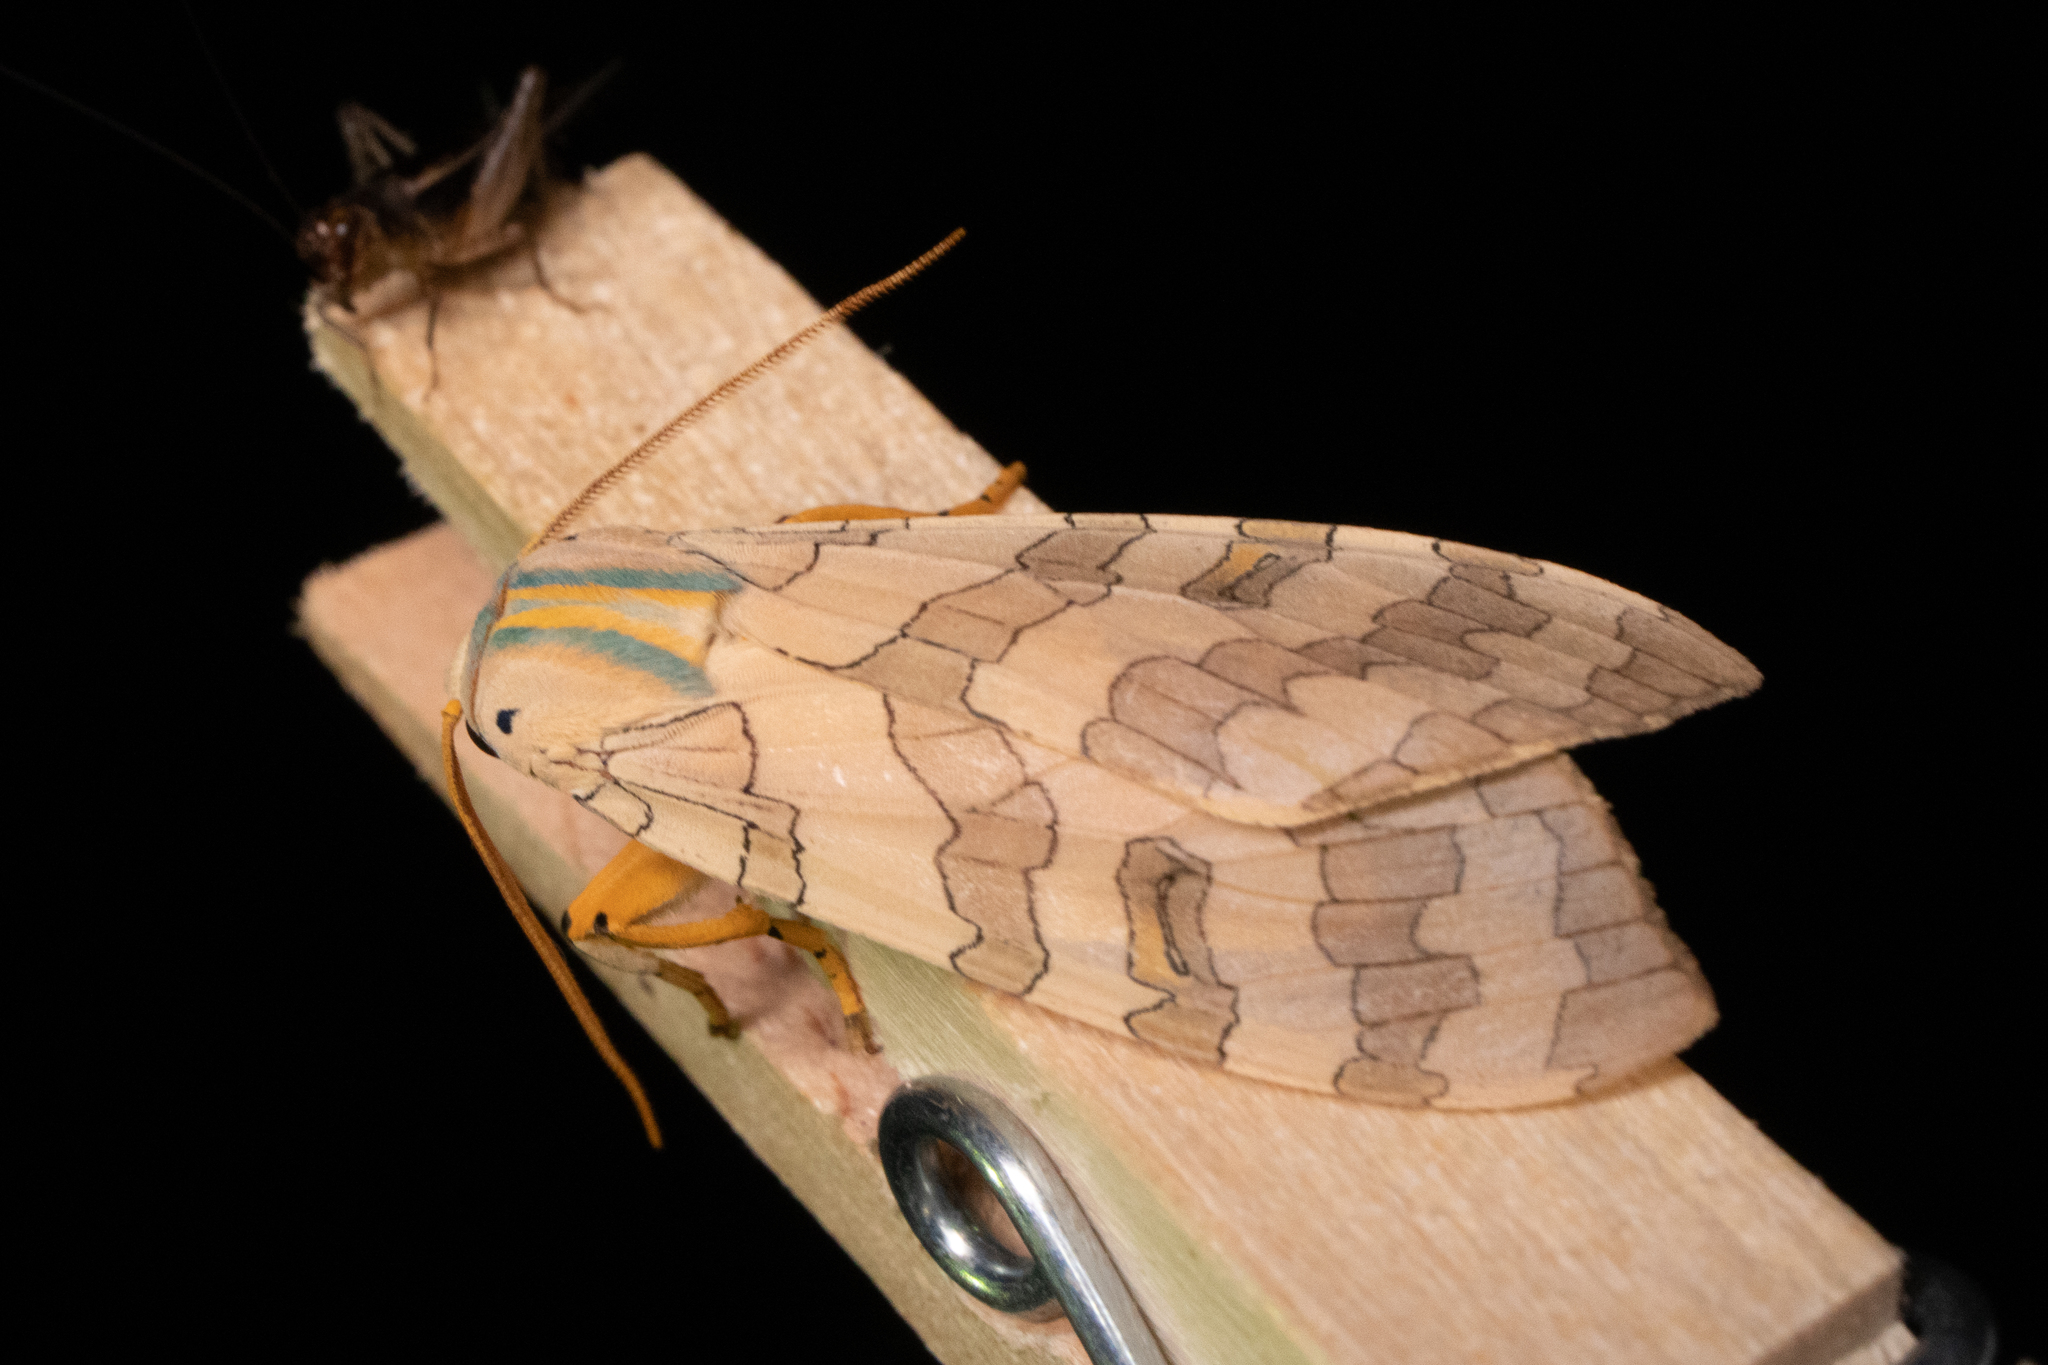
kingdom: Animalia
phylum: Arthropoda
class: Insecta
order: Lepidoptera
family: Erebidae
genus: Halysidota
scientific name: Halysidota
